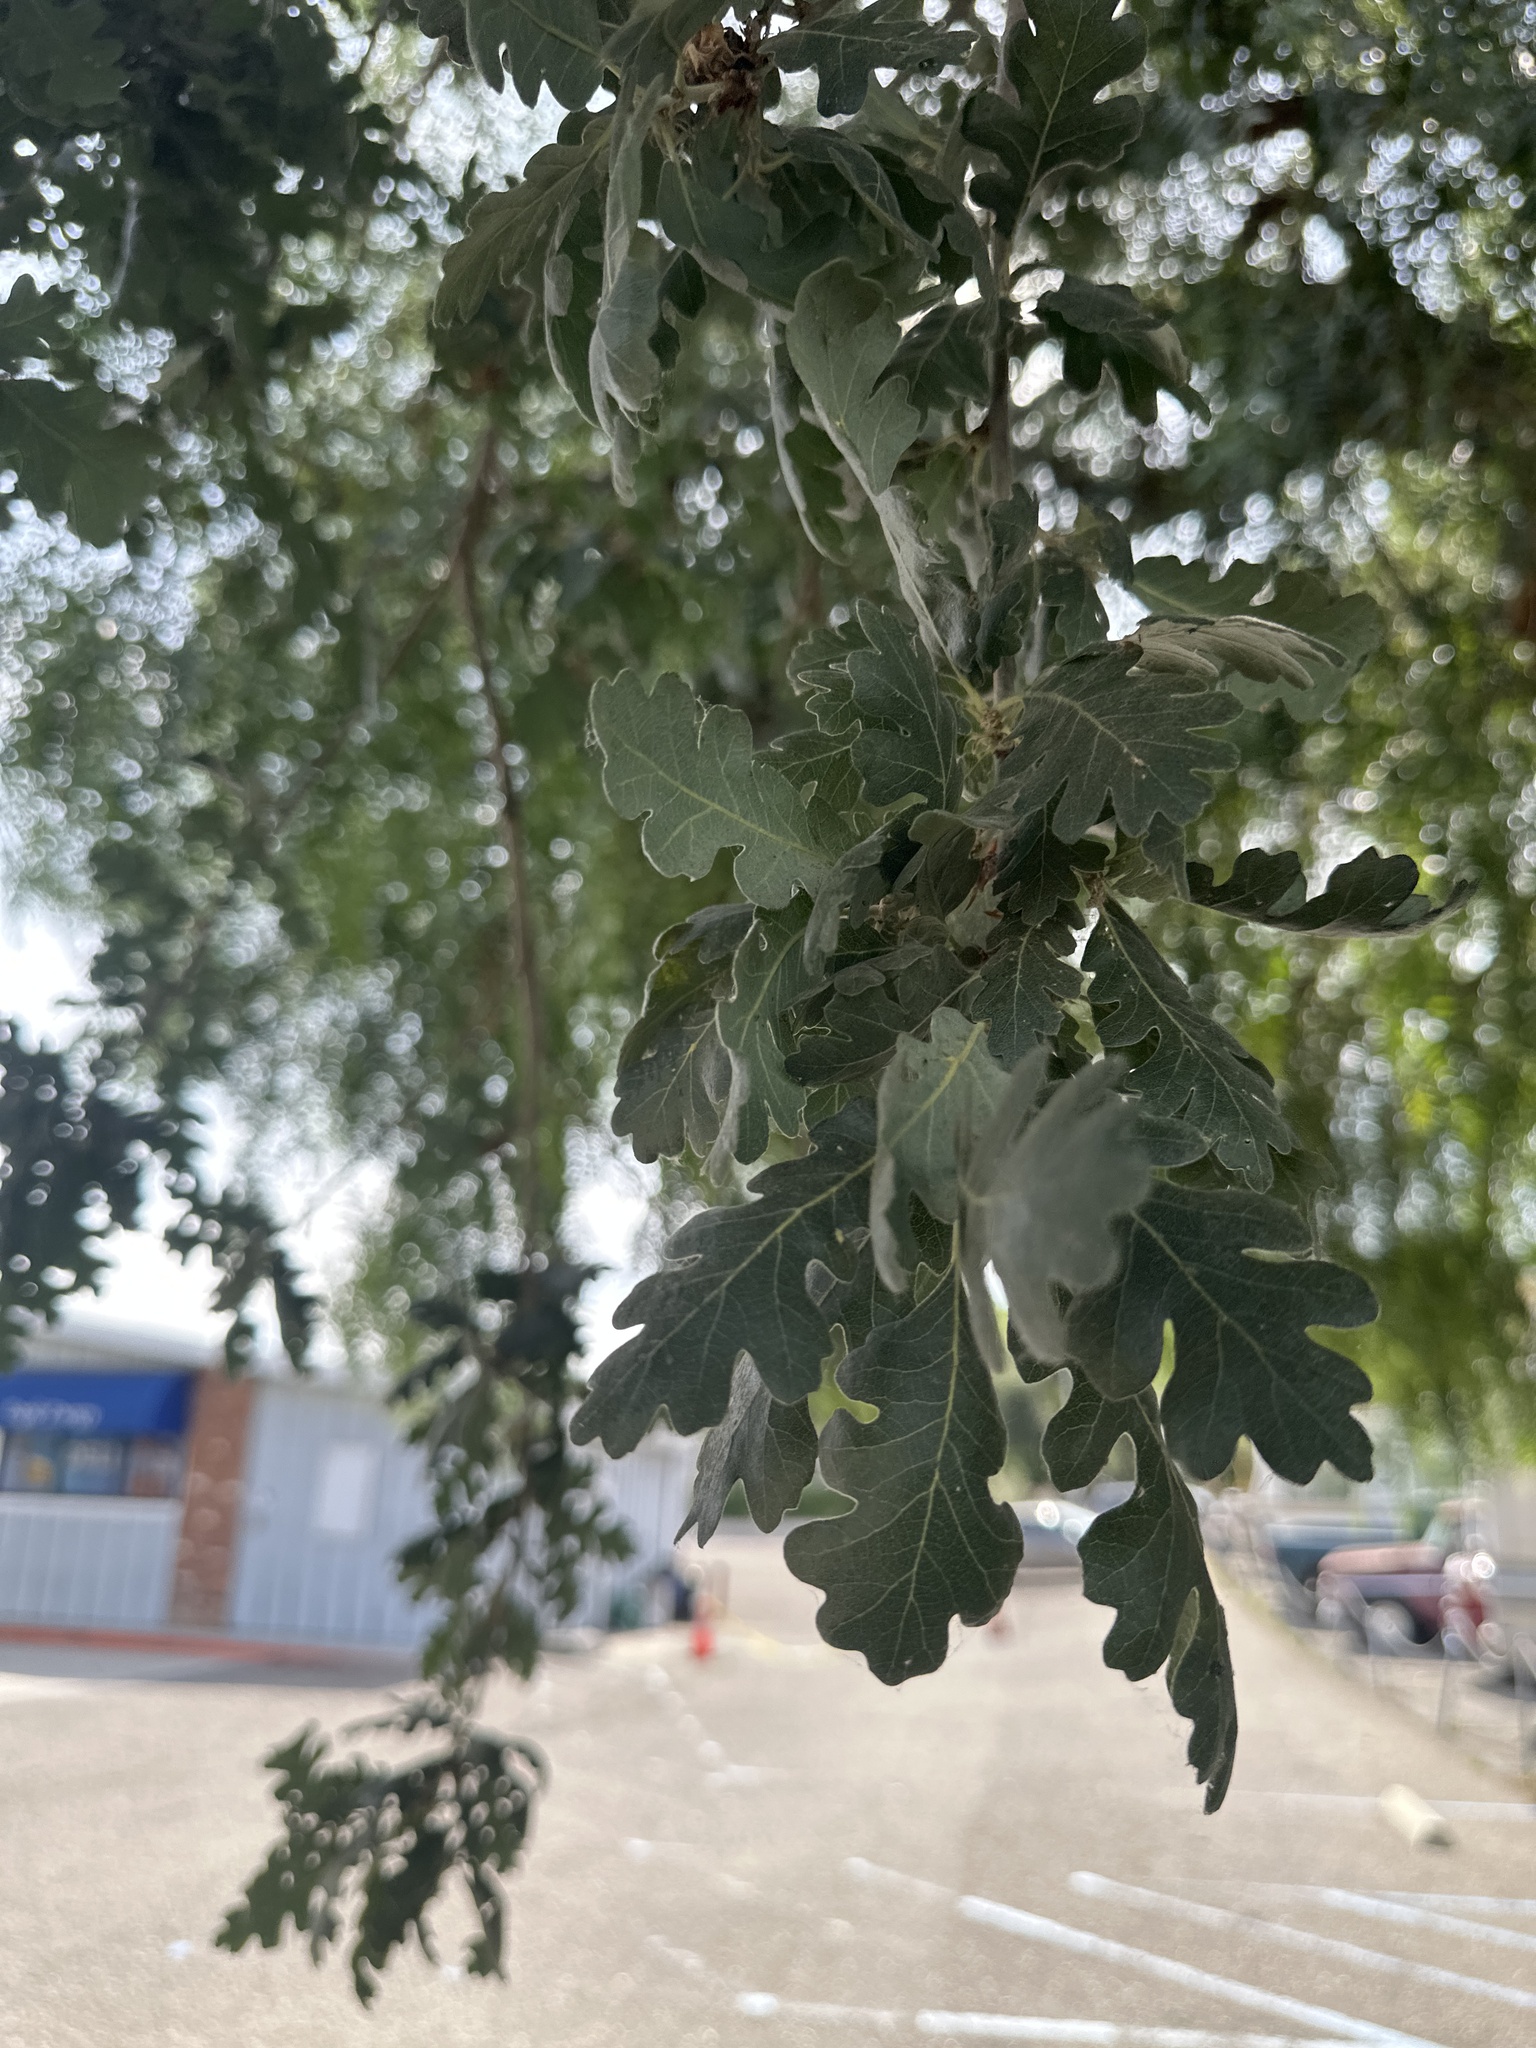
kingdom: Plantae
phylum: Tracheophyta
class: Magnoliopsida
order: Fagales
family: Fagaceae
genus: Quercus
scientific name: Quercus lobata
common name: Valley oak
